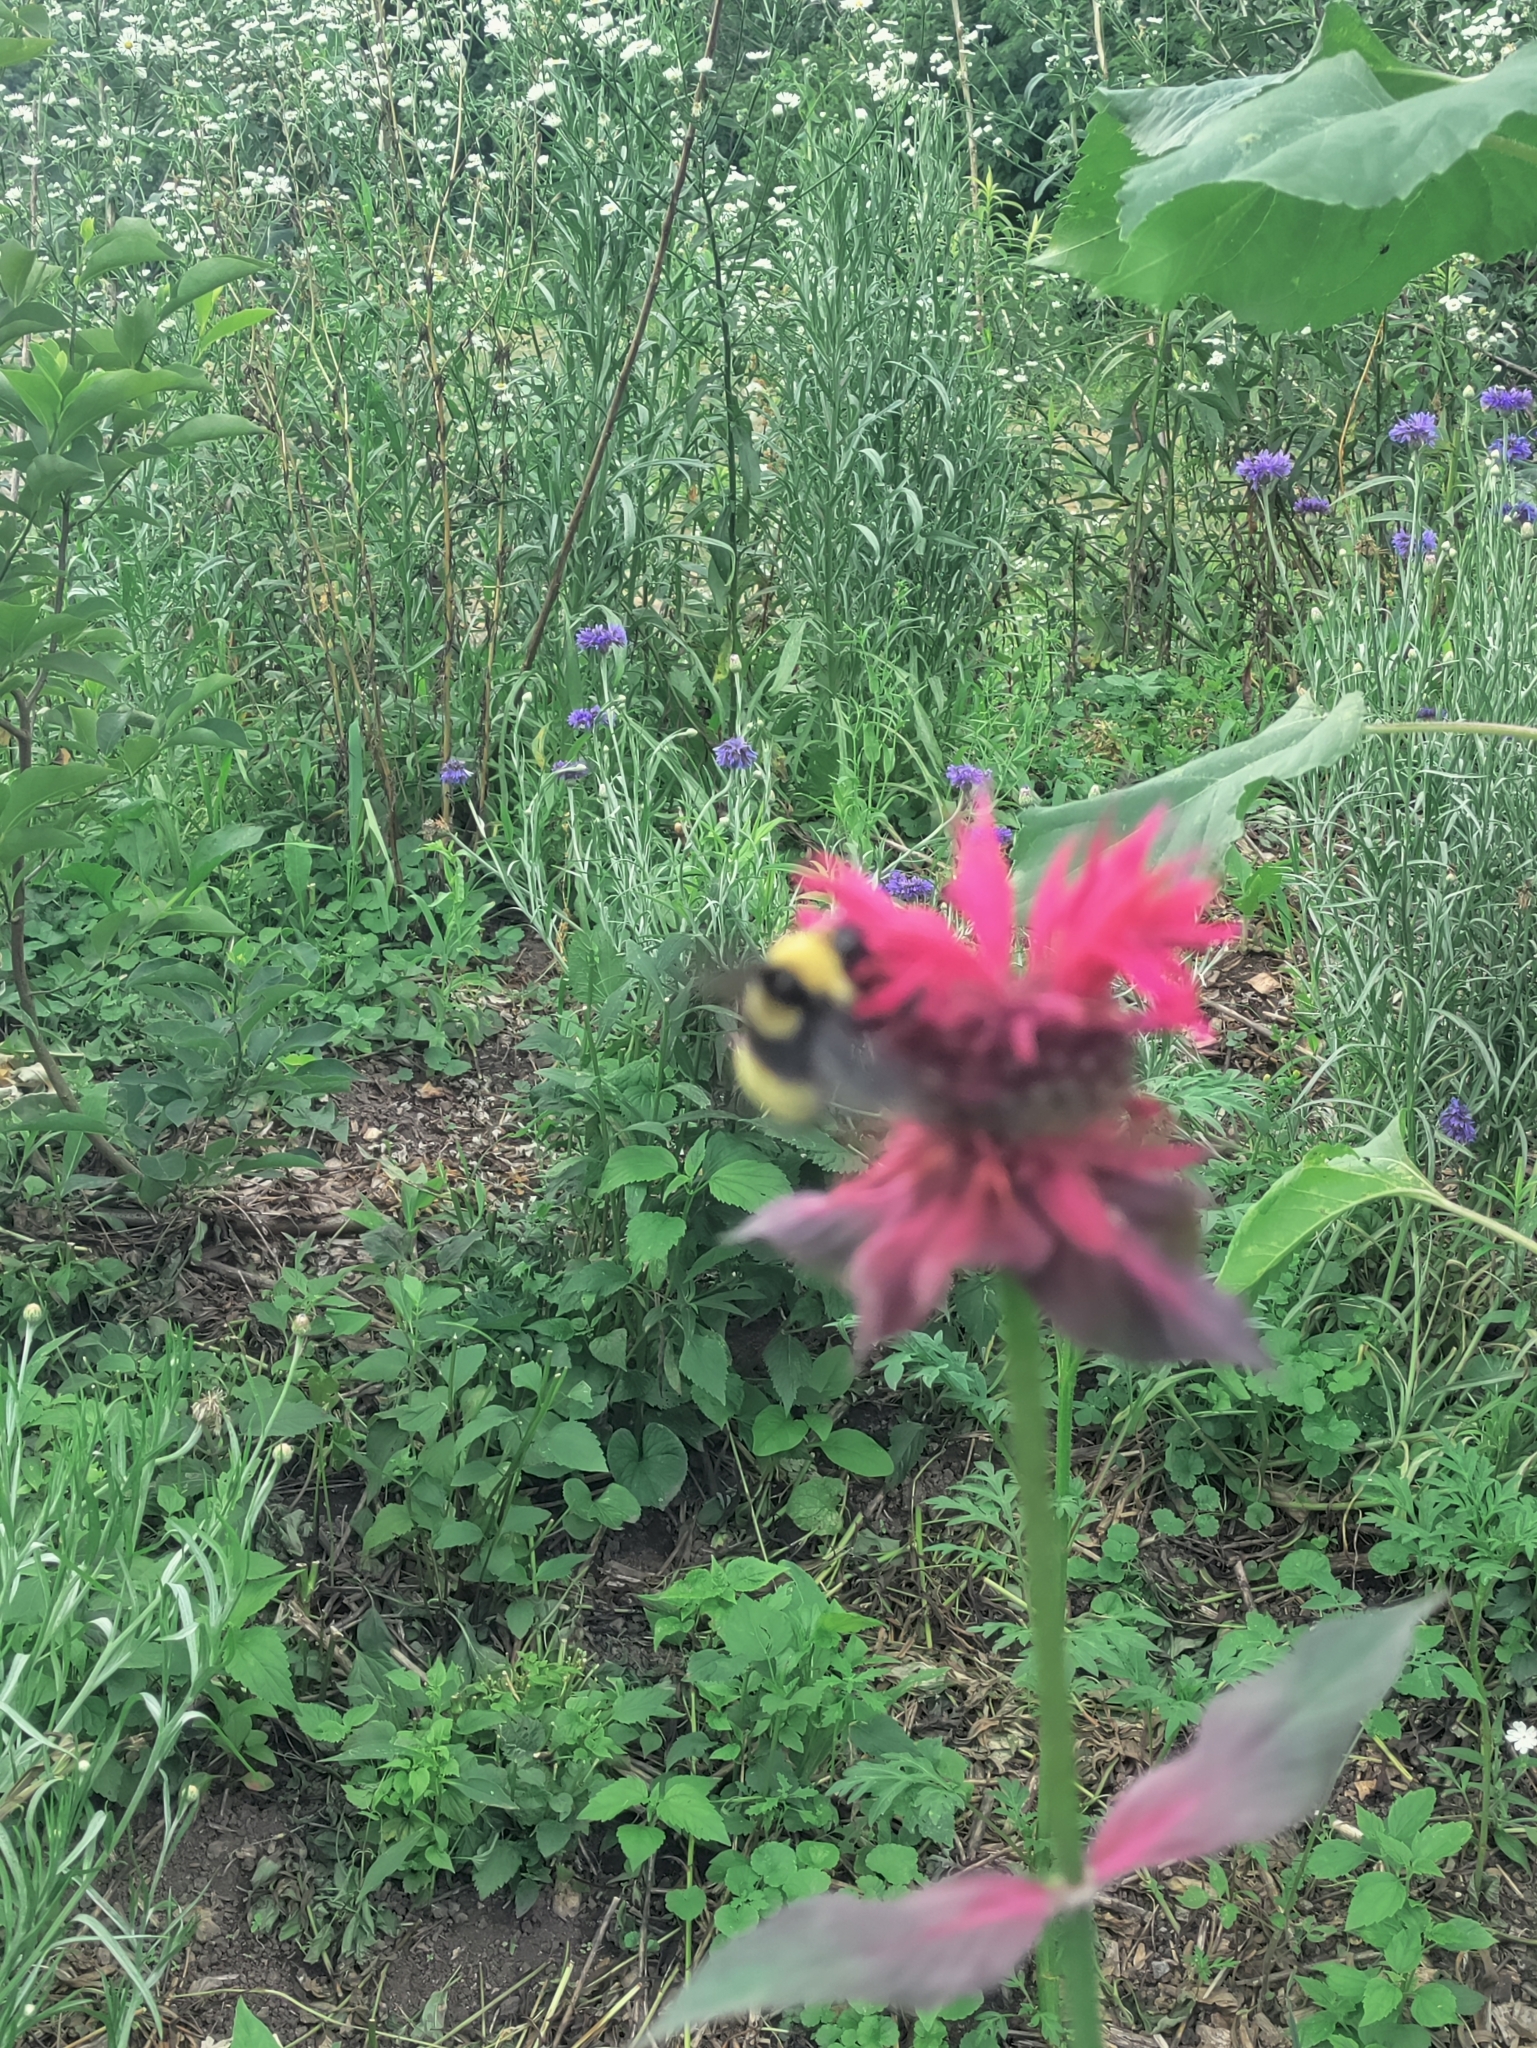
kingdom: Animalia
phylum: Arthropoda
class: Insecta
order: Hymenoptera
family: Apidae
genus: Bombus
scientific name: Bombus auricomus
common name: Black and gold bumble bee
